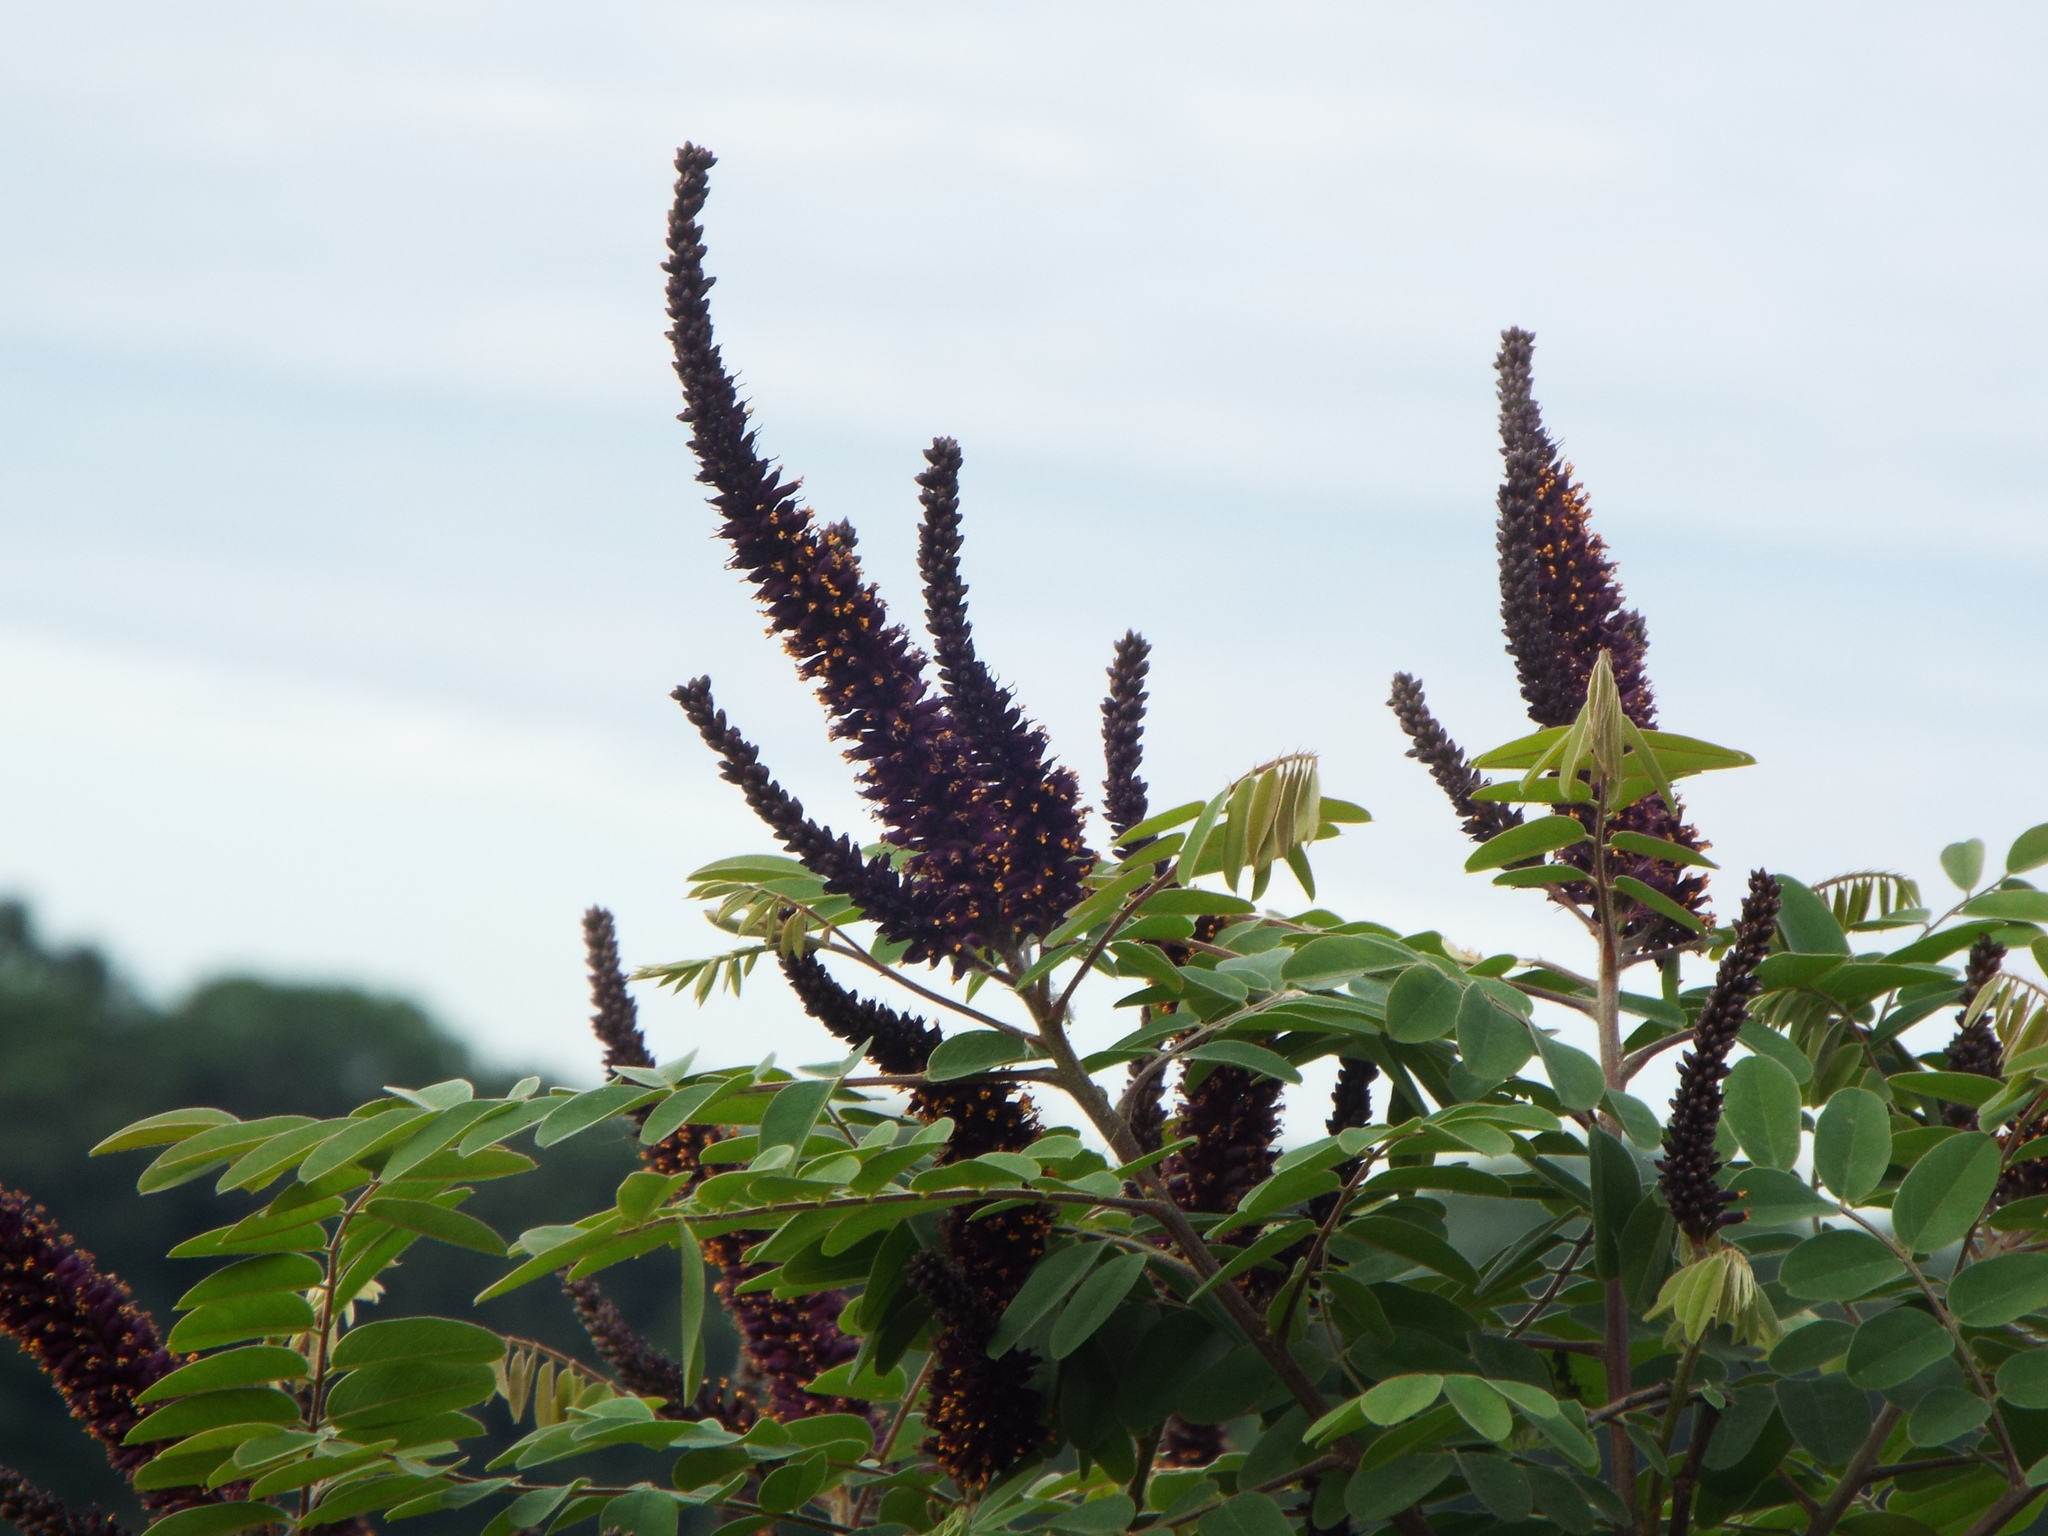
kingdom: Plantae
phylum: Tracheophyta
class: Magnoliopsida
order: Fabales
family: Fabaceae
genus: Amorpha
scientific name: Amorpha fruticosa
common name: False indigo
